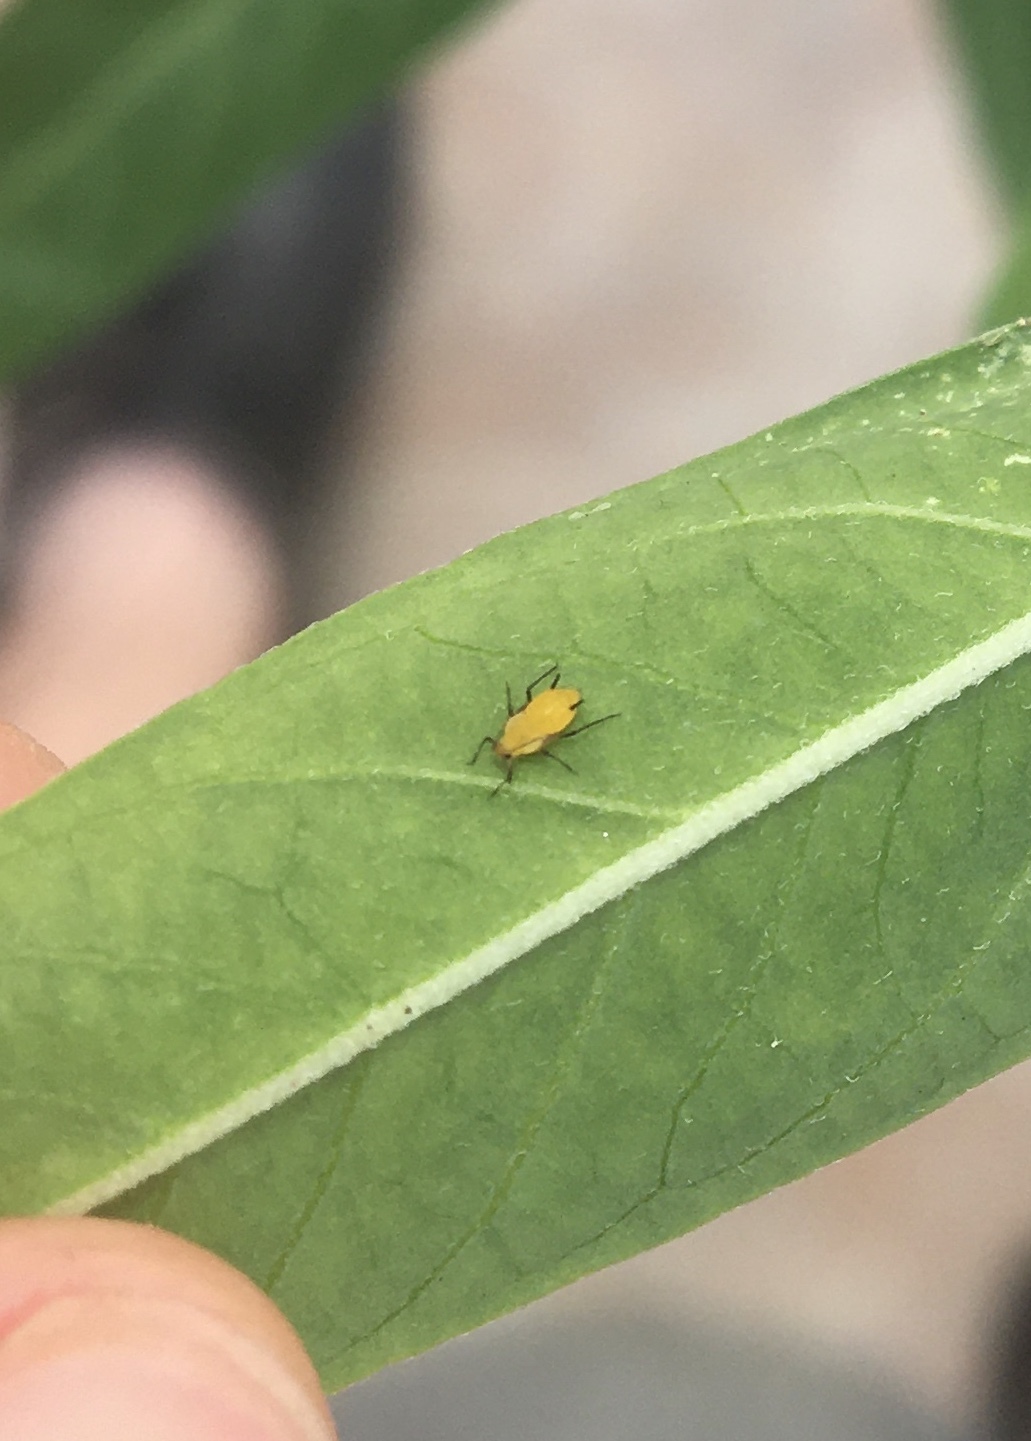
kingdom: Animalia
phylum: Arthropoda
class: Insecta
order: Hemiptera
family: Aphididae
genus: Aphis
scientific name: Aphis nerii
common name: Oleander aphid
